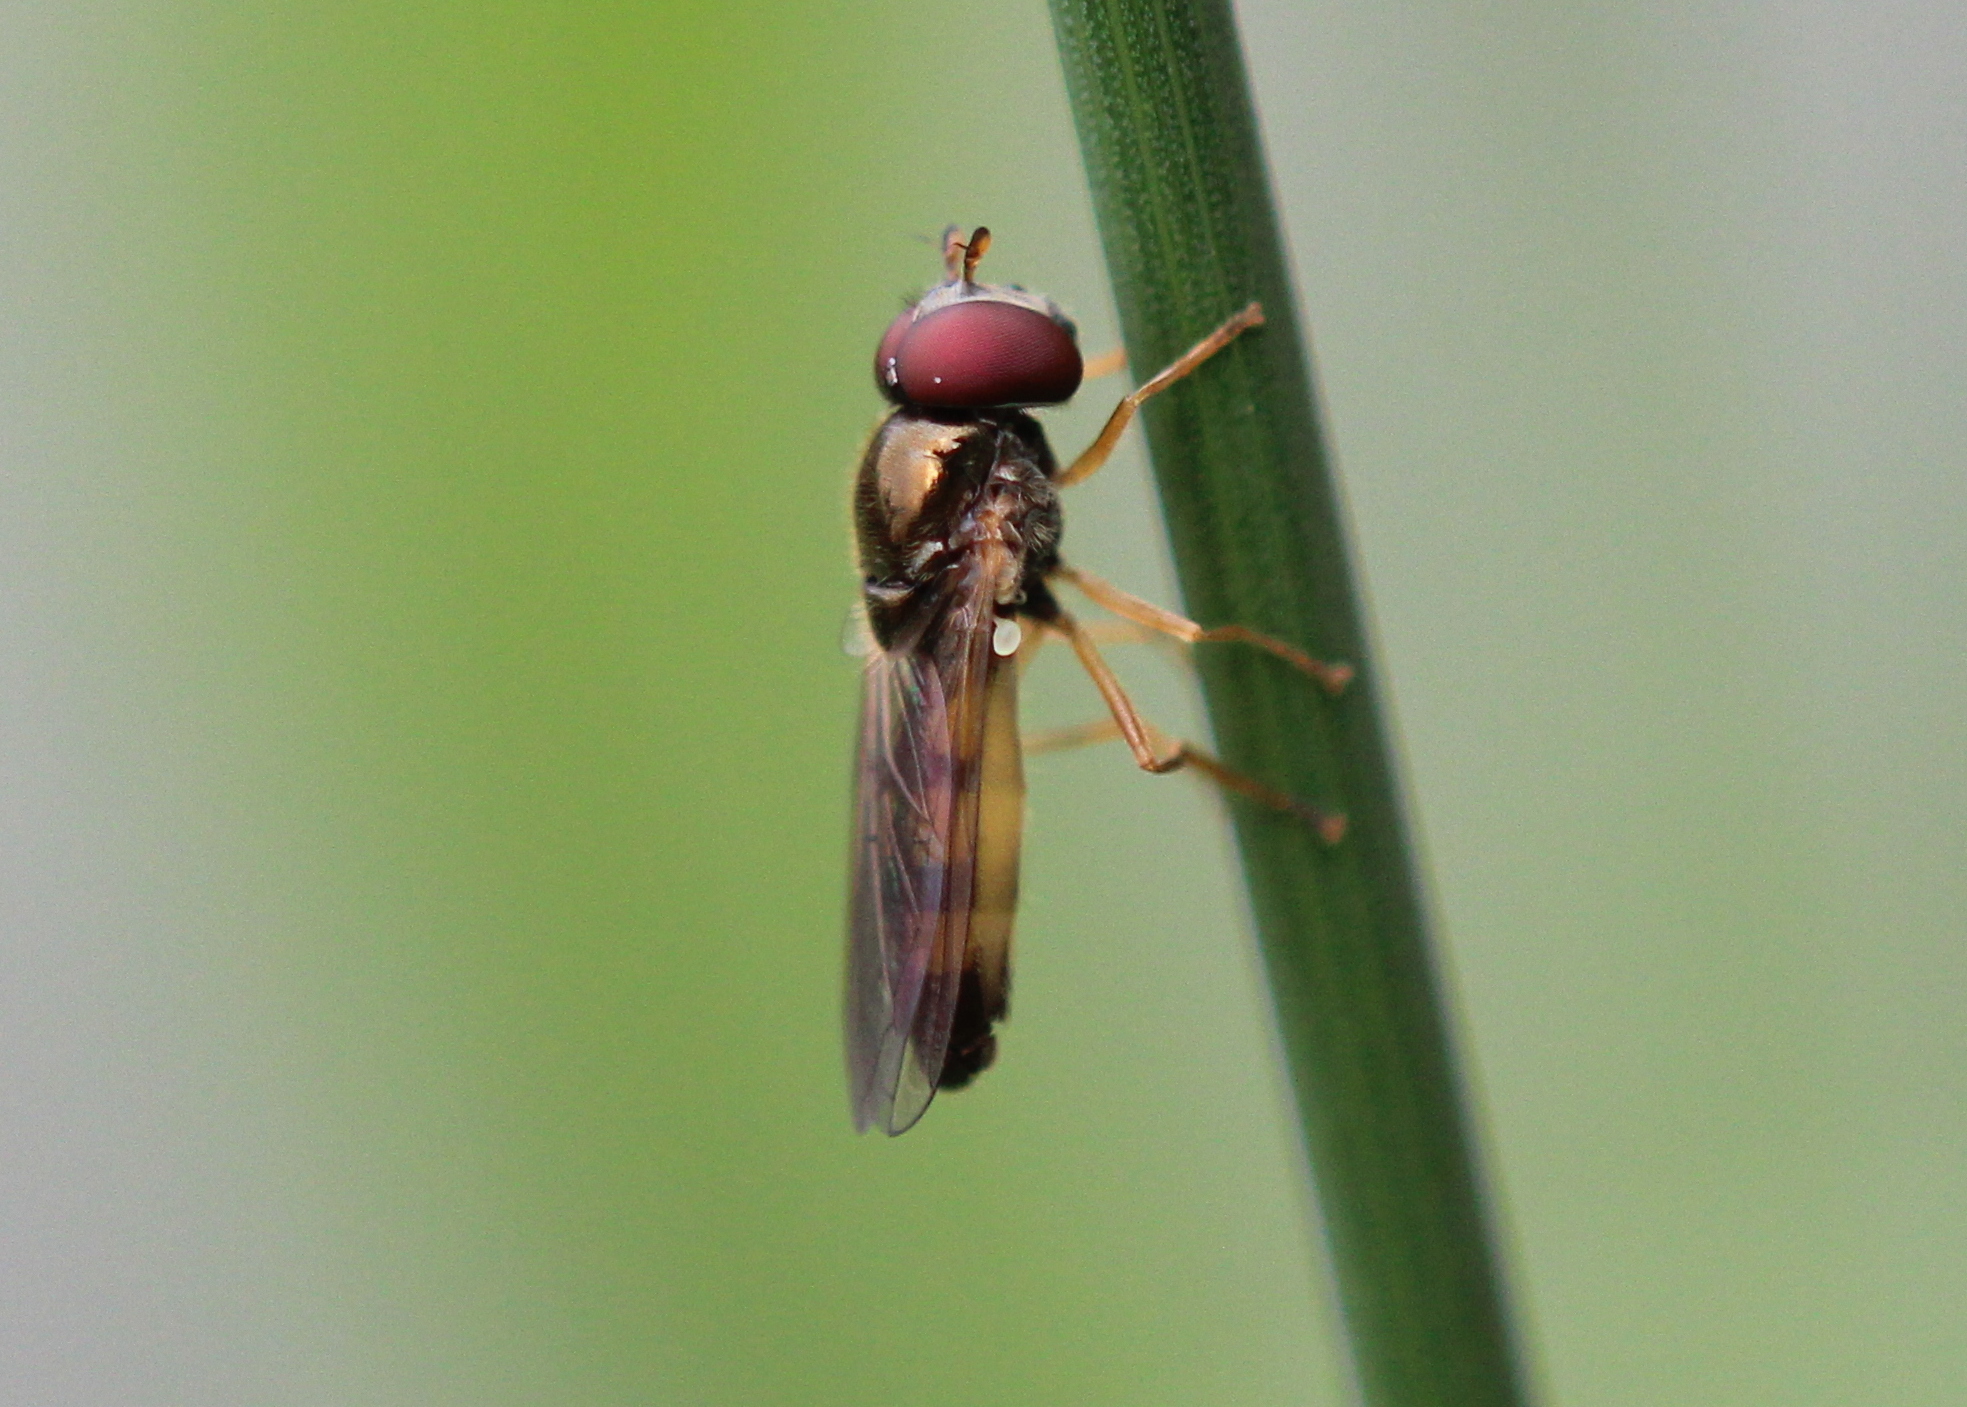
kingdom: Animalia
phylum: Arthropoda
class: Insecta
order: Diptera
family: Syrphidae
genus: Melanostoma
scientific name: Melanostoma mellina
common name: Hover fly
